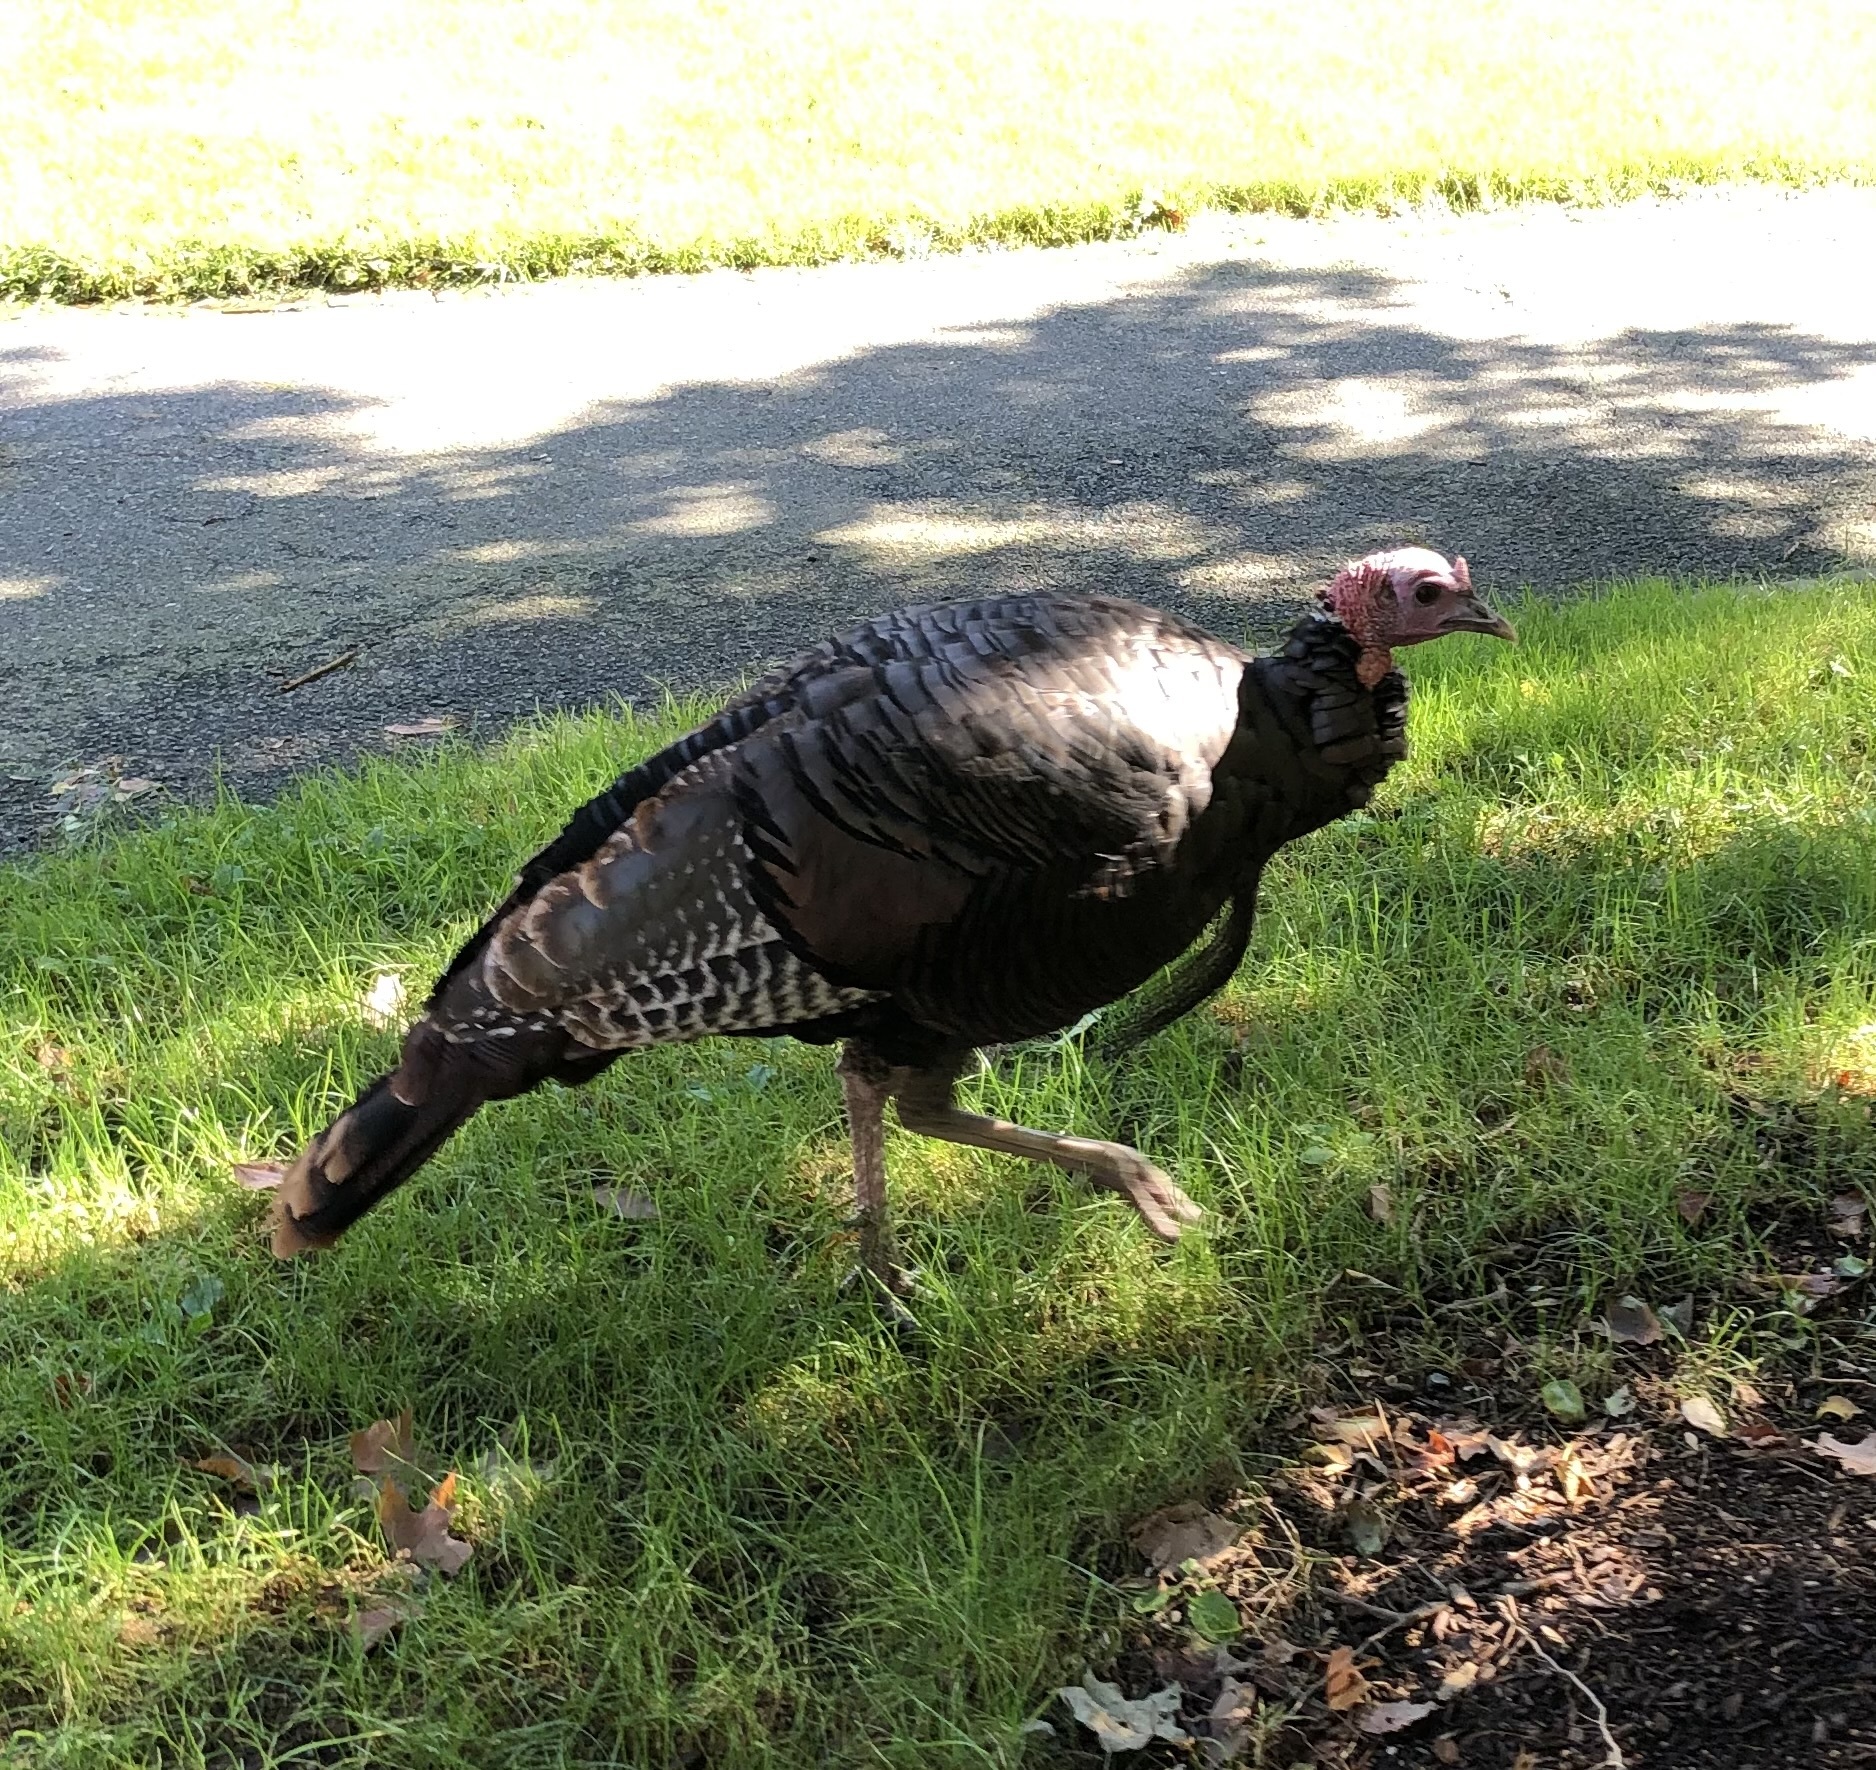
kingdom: Animalia
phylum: Chordata
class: Aves
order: Galliformes
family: Phasianidae
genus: Meleagris
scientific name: Meleagris gallopavo
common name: Wild turkey
